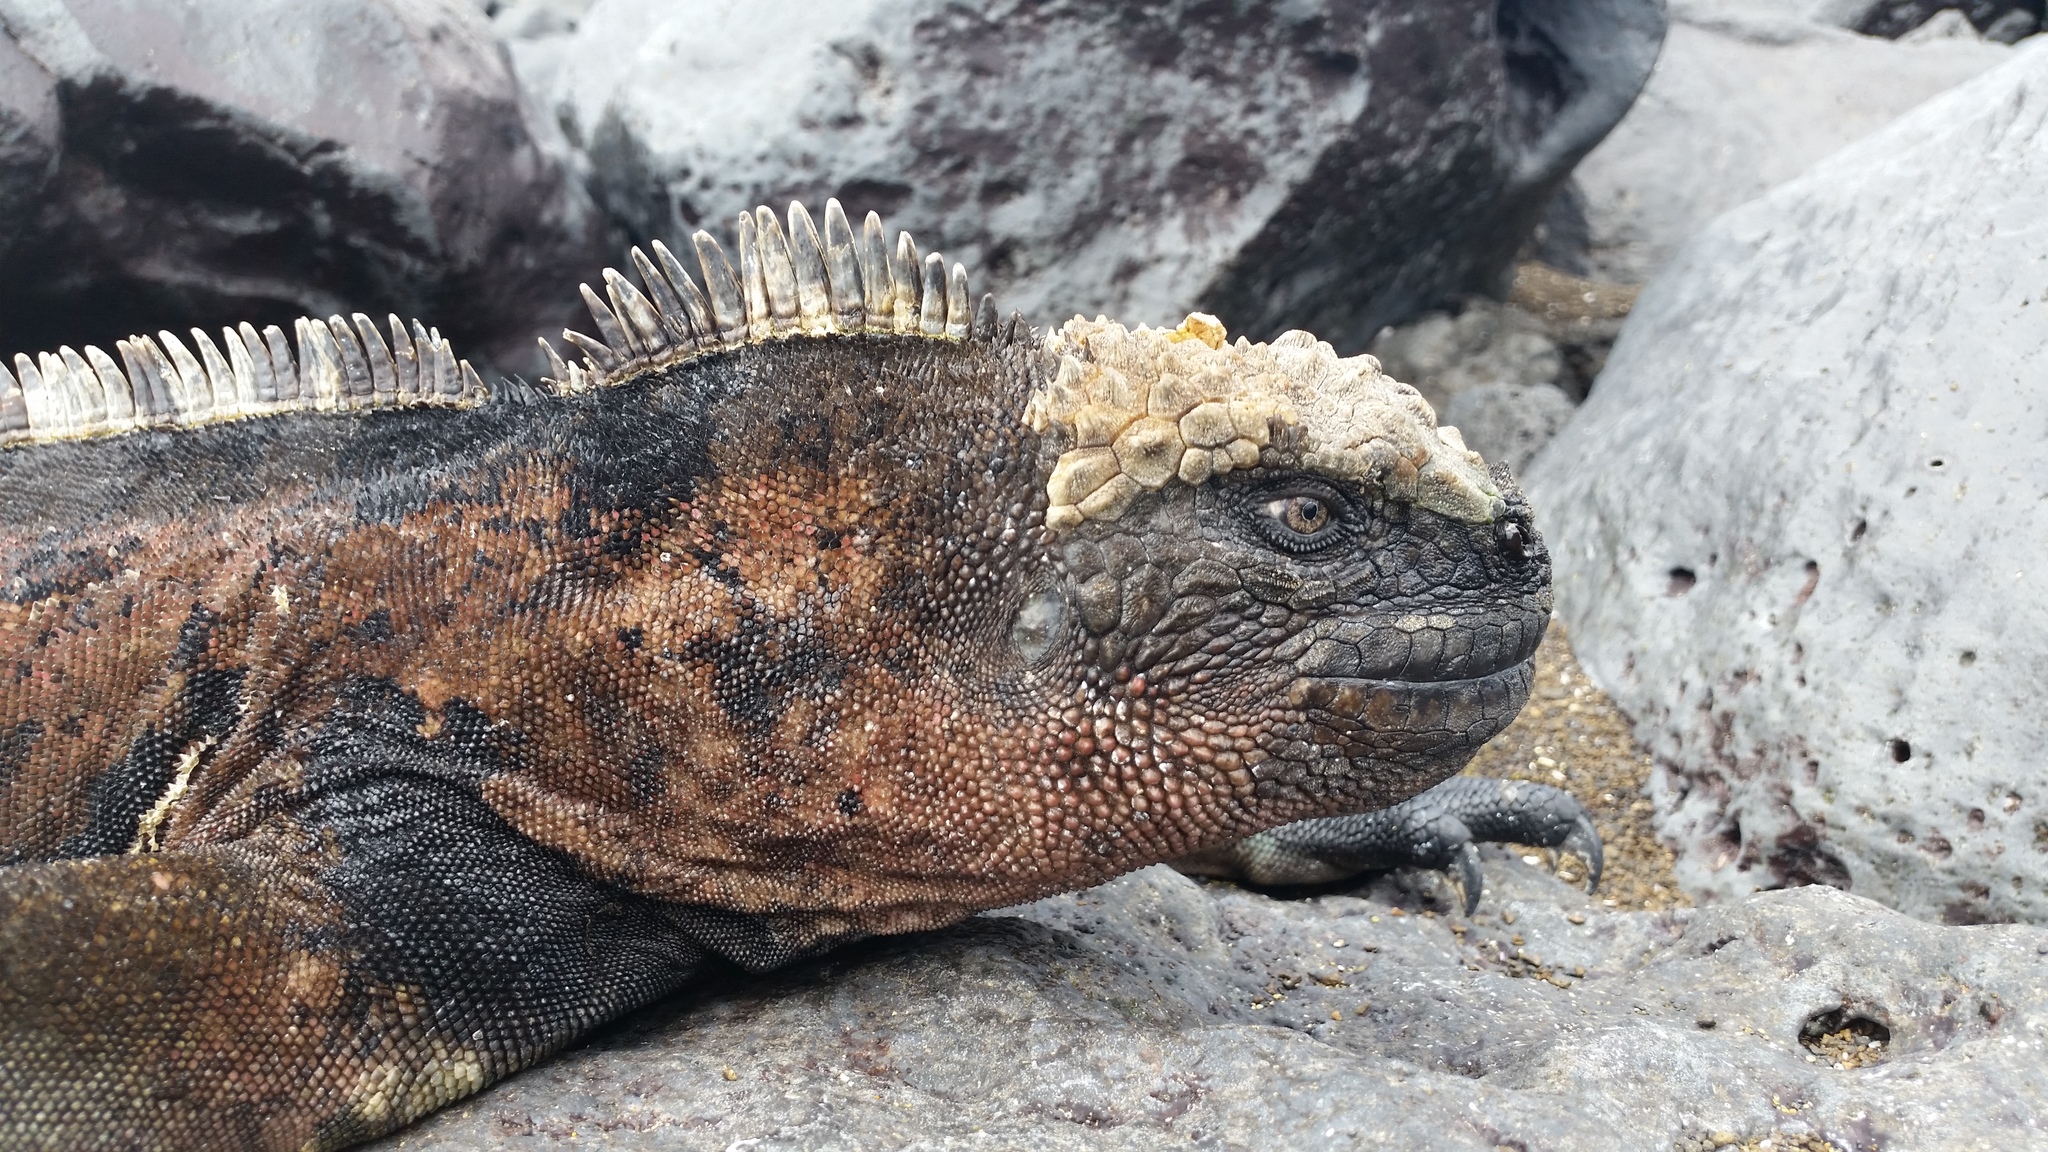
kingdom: Animalia
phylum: Chordata
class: Squamata
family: Iguanidae
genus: Amblyrhynchus
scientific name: Amblyrhynchus cristatus
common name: Marine iguana
